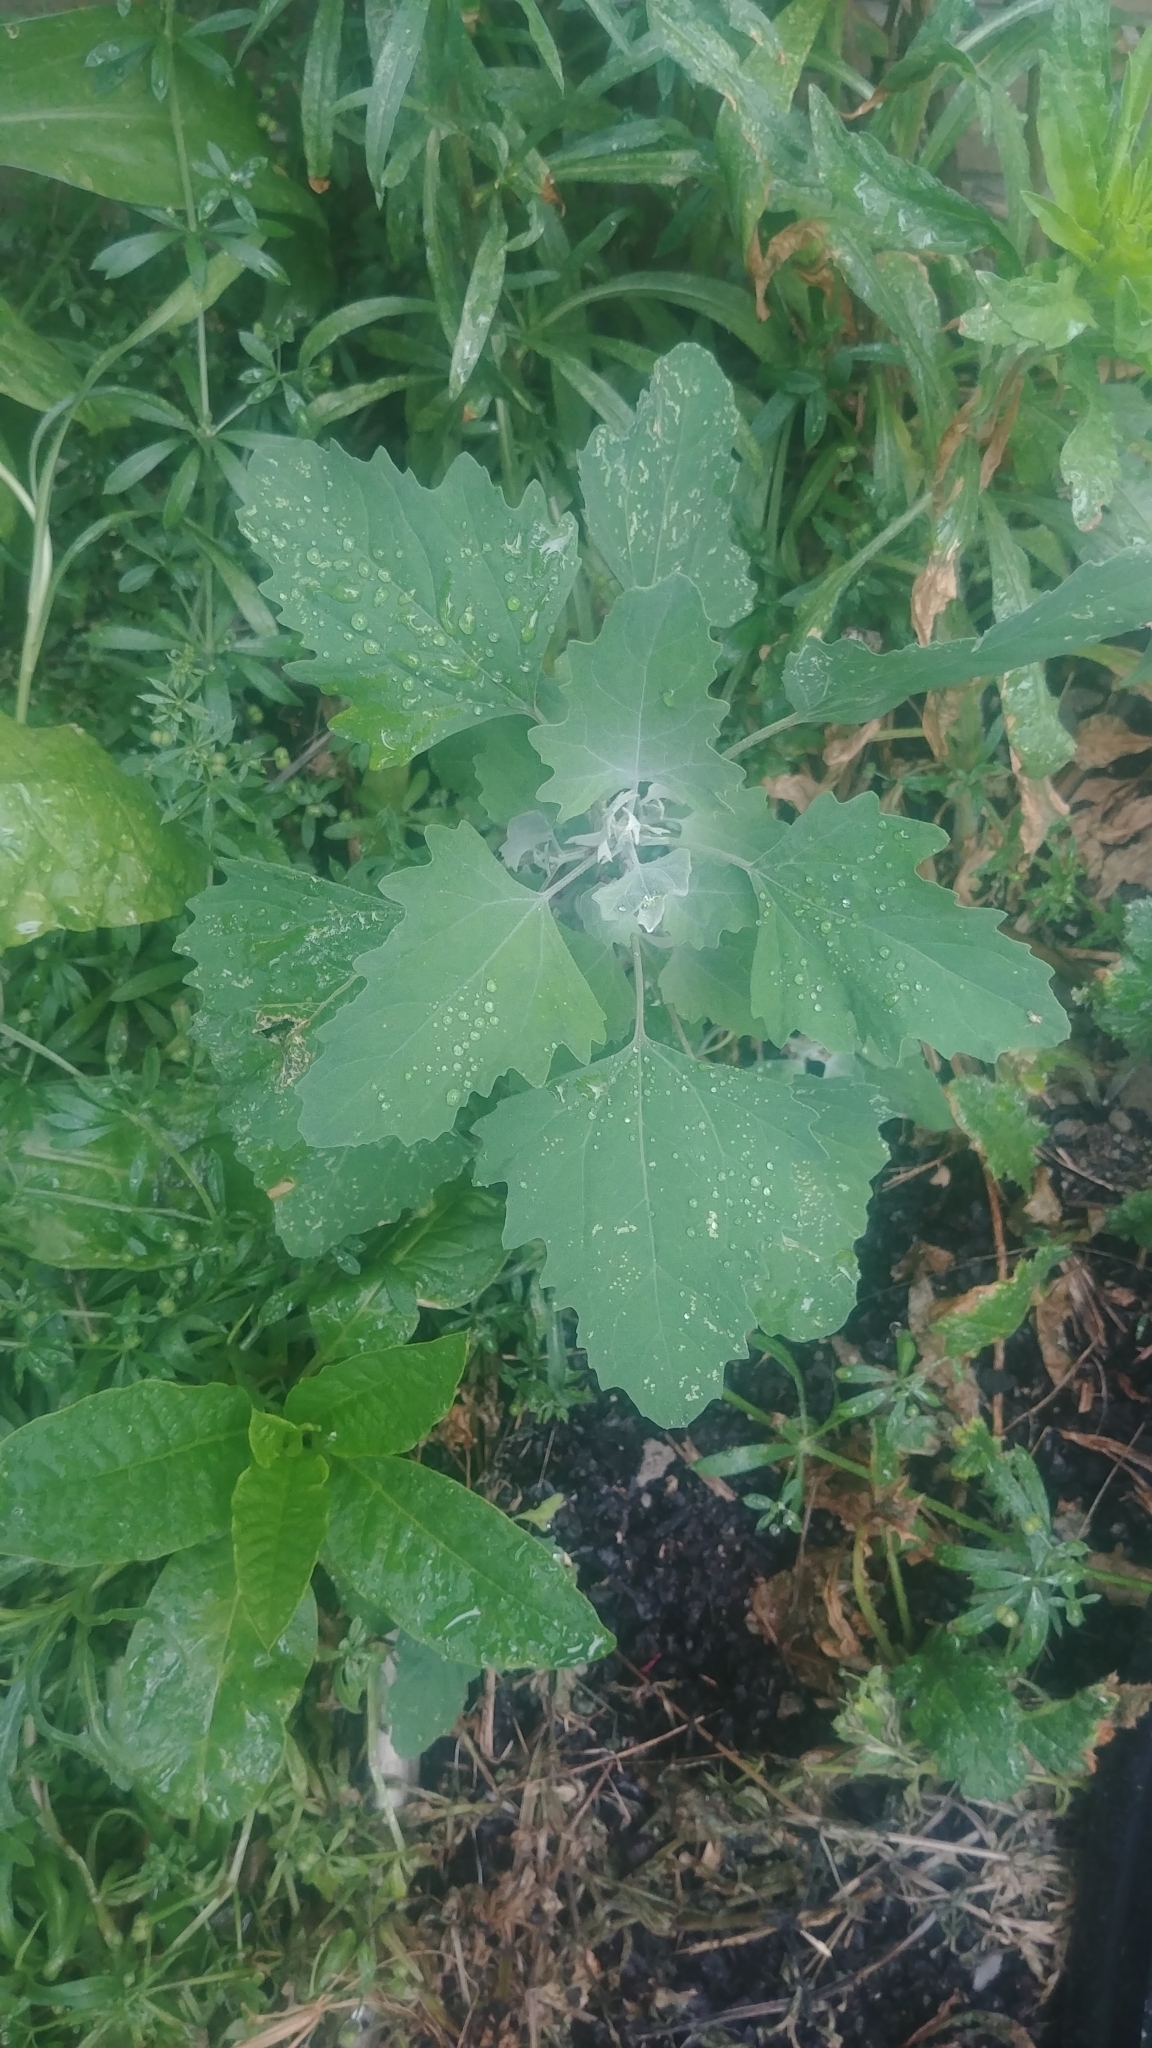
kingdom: Plantae
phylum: Tracheophyta
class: Magnoliopsida
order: Caryophyllales
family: Amaranthaceae
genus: Chenopodium
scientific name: Chenopodium album
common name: Fat-hen
